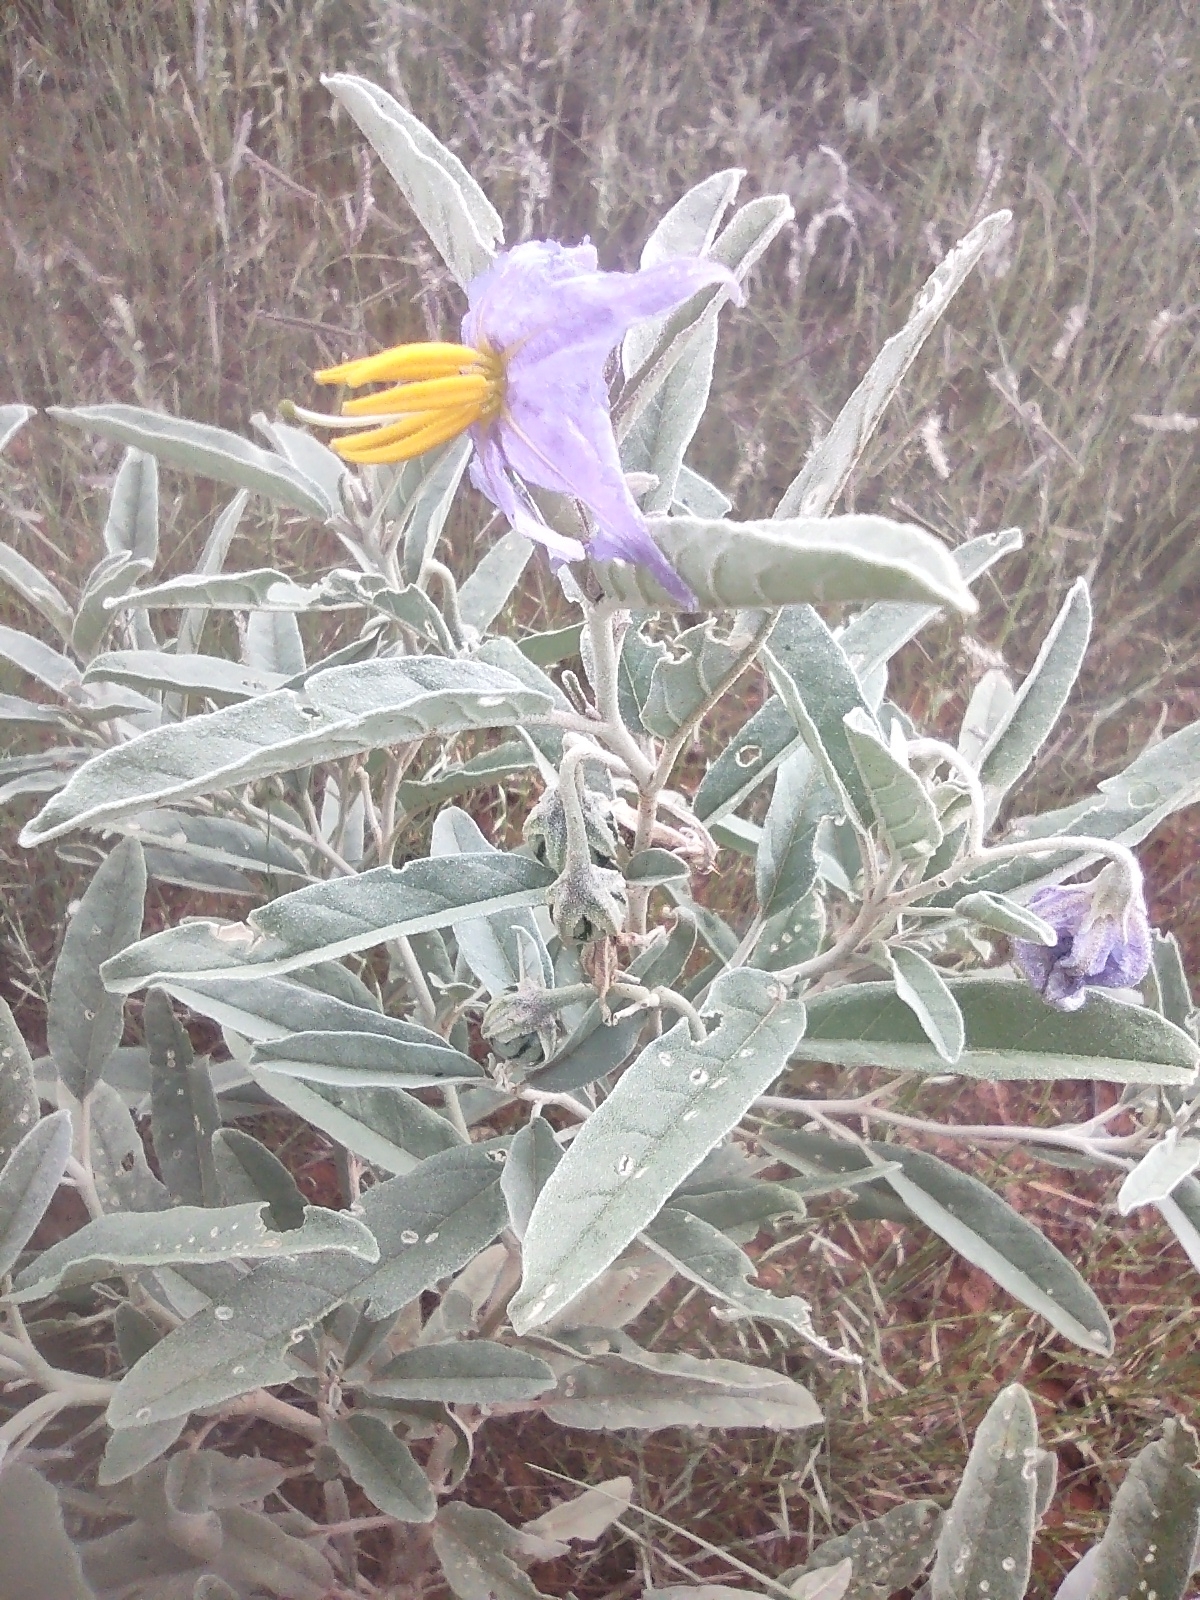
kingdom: Plantae
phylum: Tracheophyta
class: Magnoliopsida
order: Solanales
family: Solanaceae
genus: Solanum
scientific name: Solanum elaeagnifolium
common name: Silverleaf nightshade
